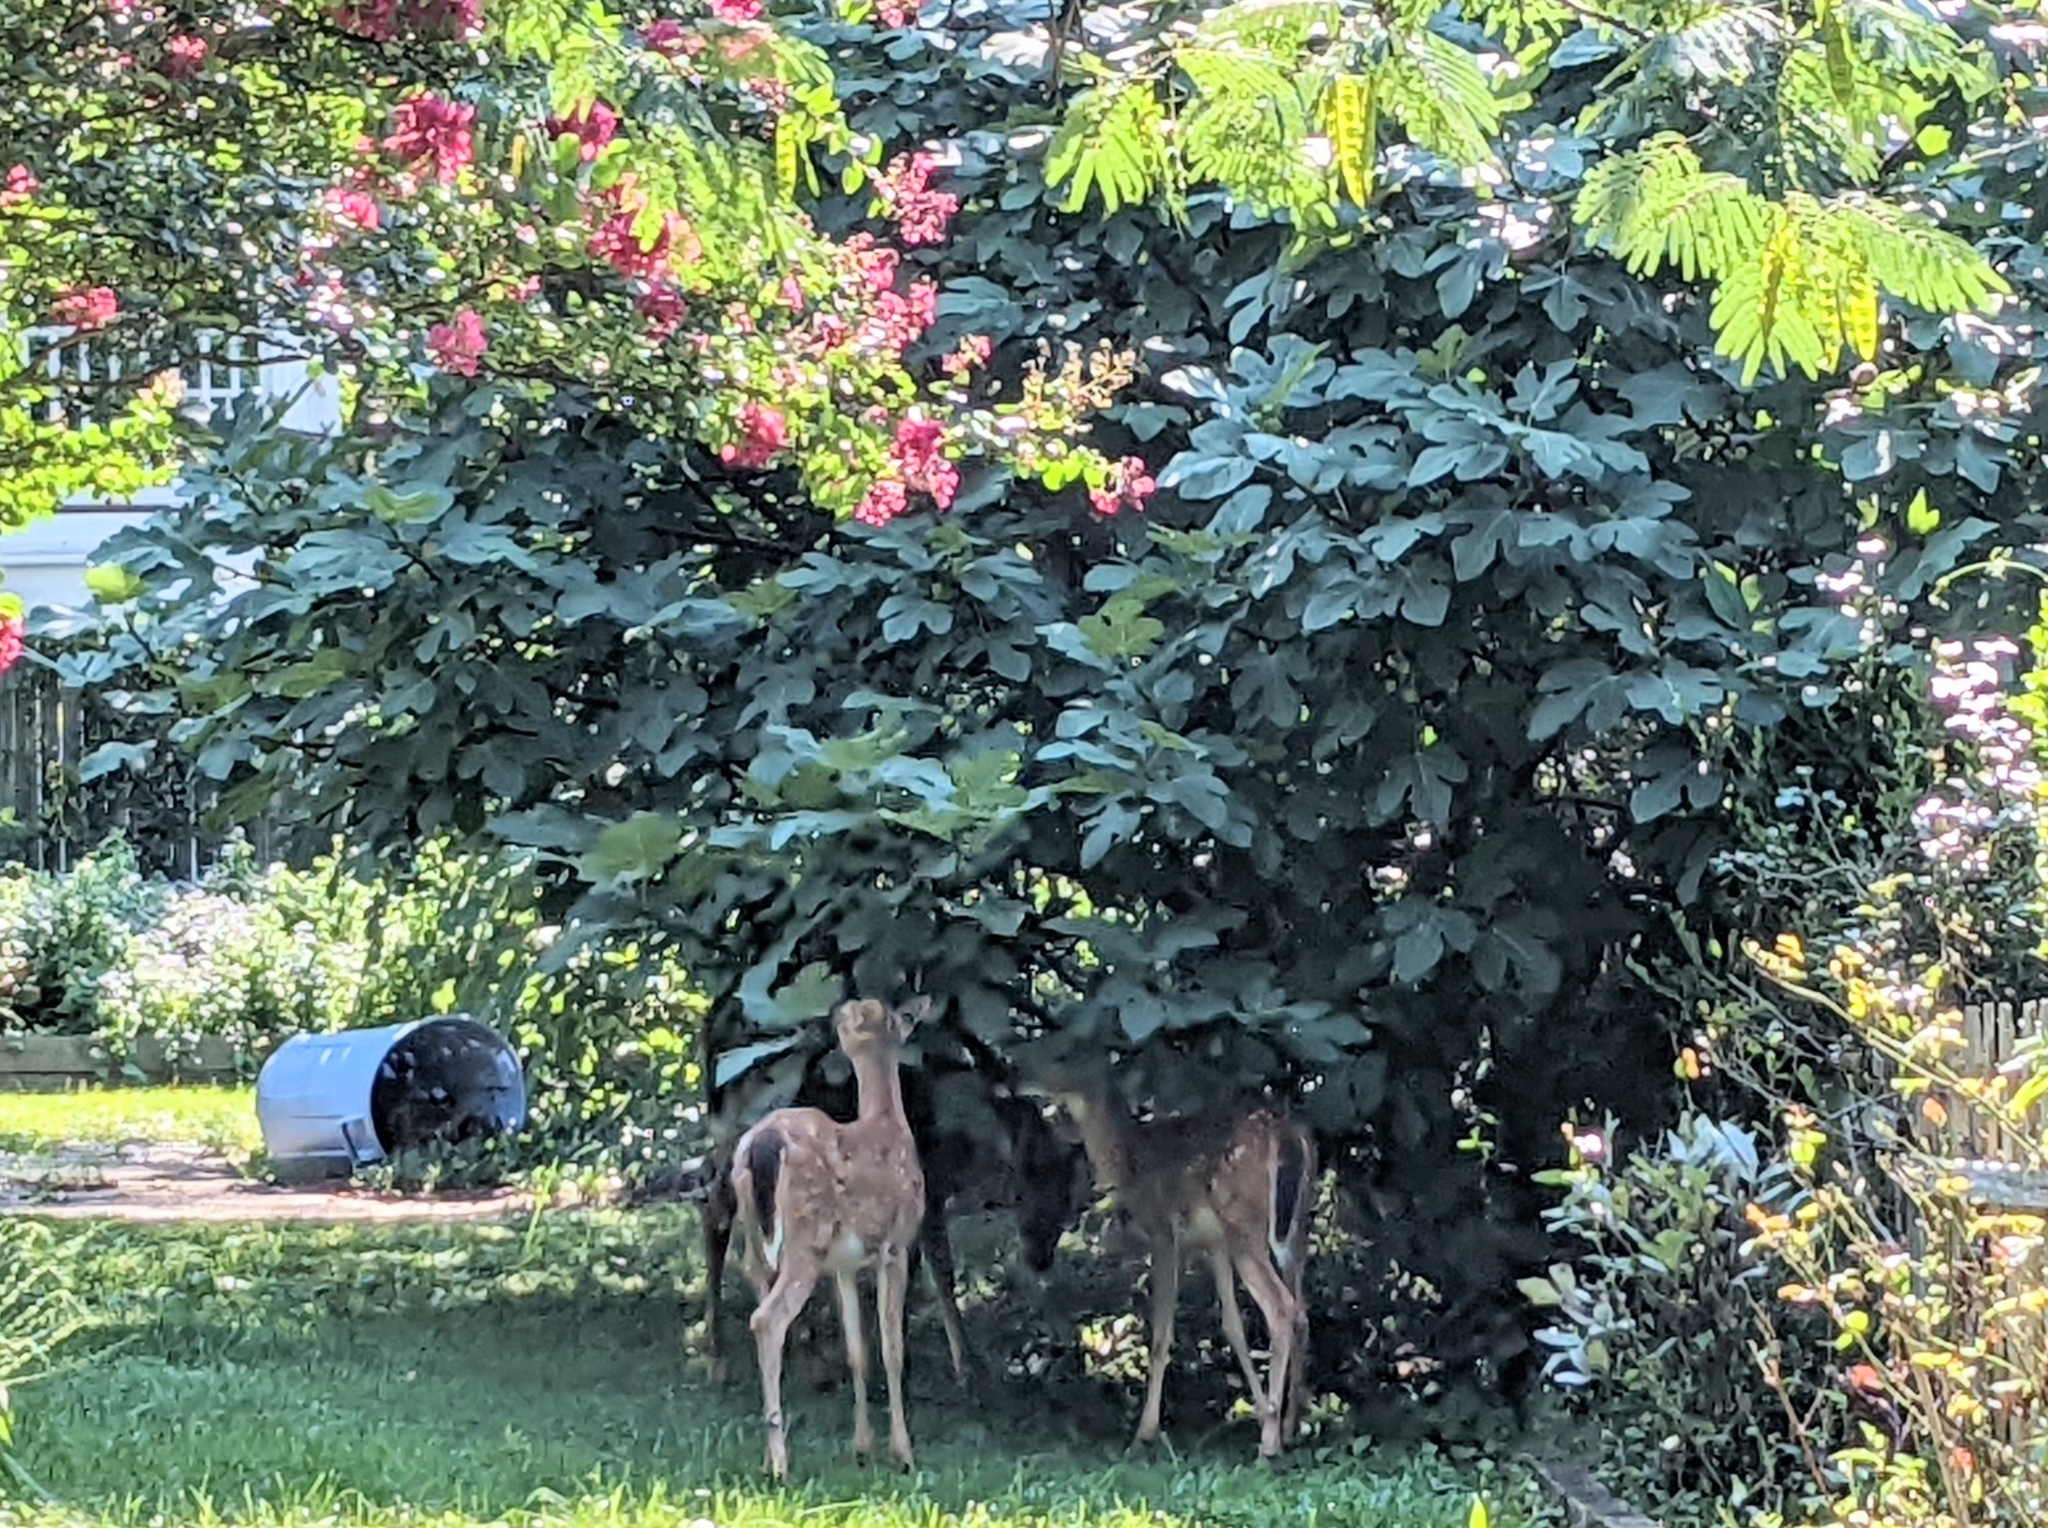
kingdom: Animalia
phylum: Chordata
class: Mammalia
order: Artiodactyla
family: Cervidae
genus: Odocoileus
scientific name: Odocoileus virginianus
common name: White-tailed deer
